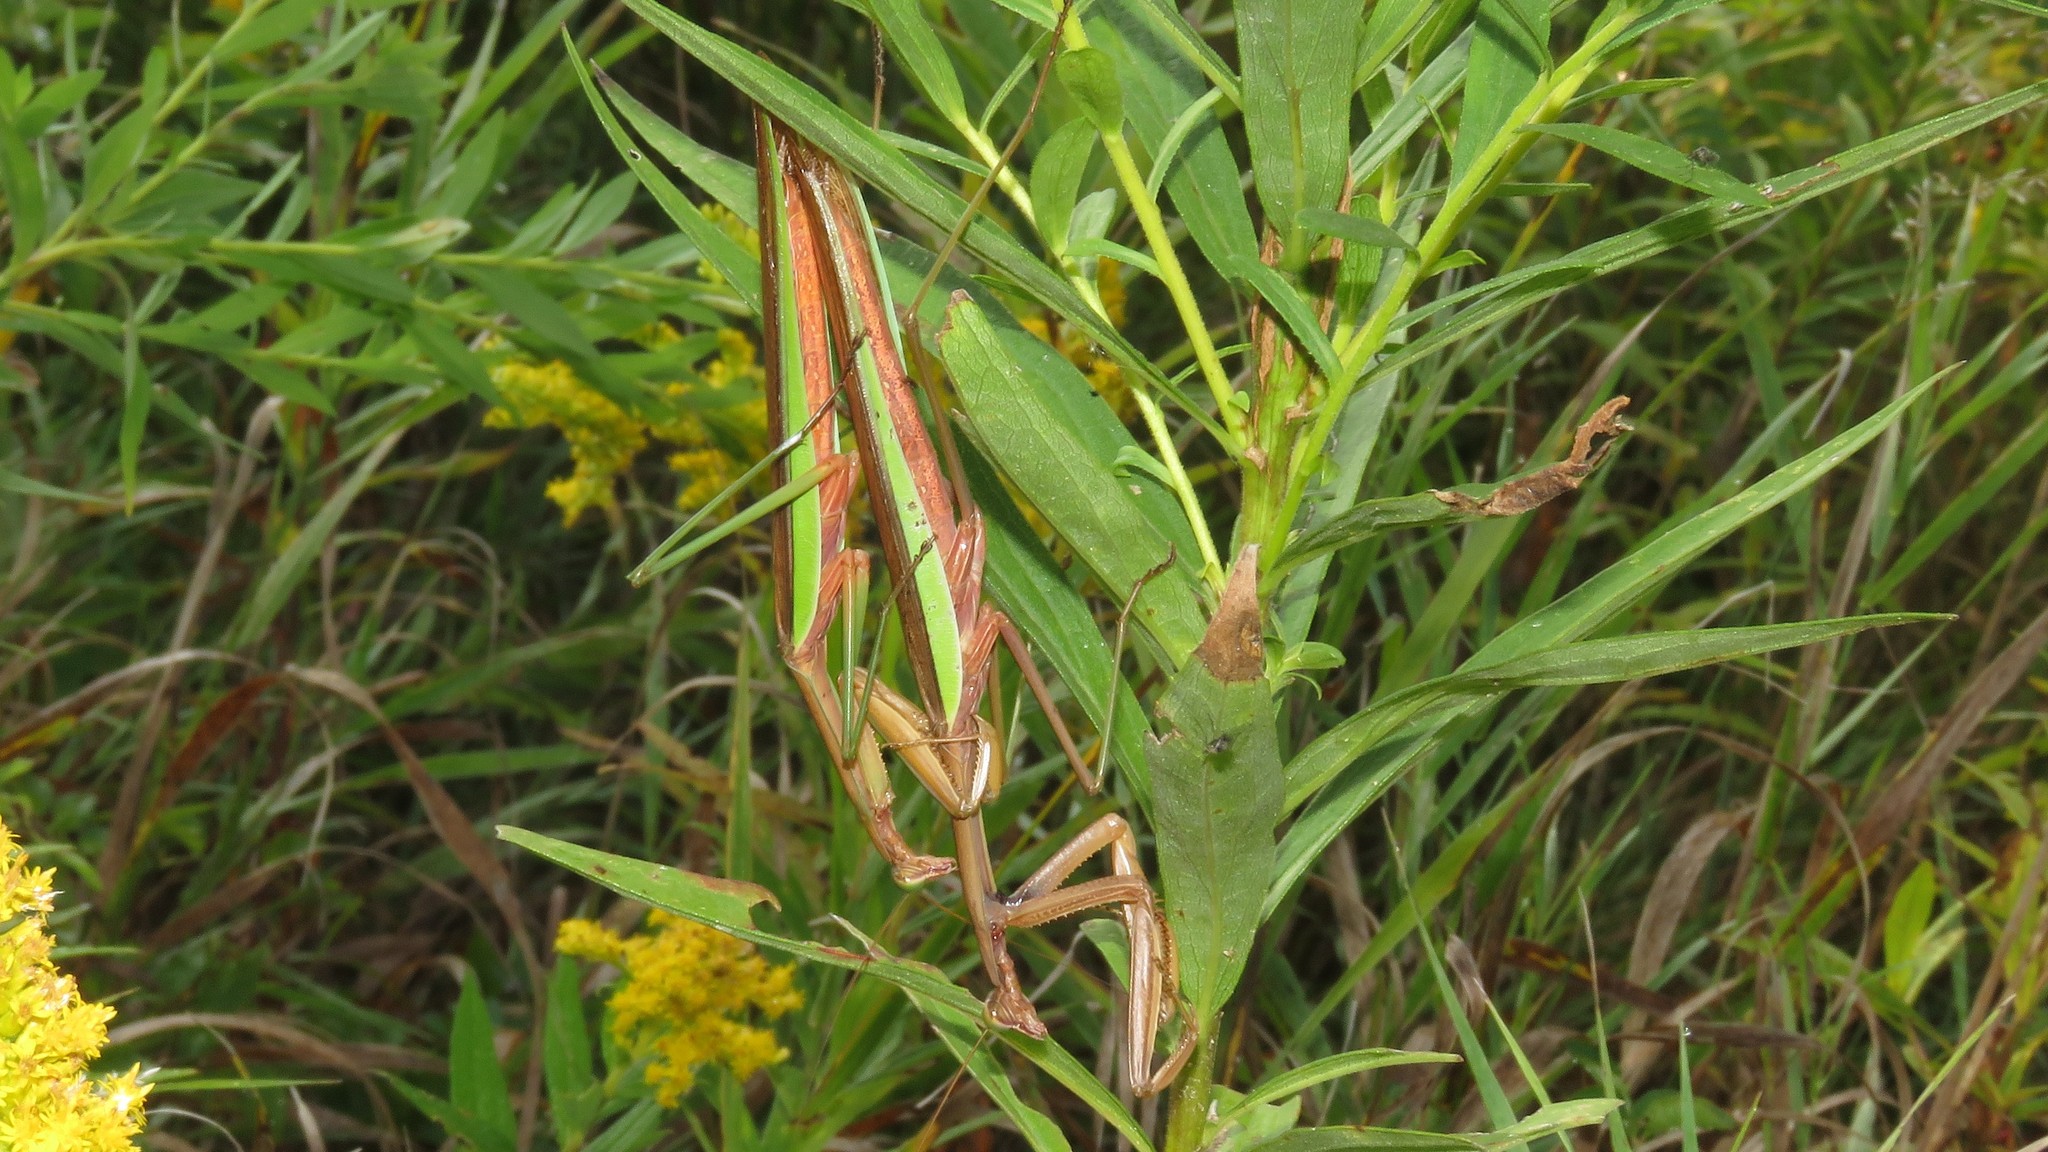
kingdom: Animalia
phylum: Arthropoda
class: Insecta
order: Mantodea
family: Mantidae
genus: Tenodera
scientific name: Tenodera sinensis
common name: Chinese mantis
